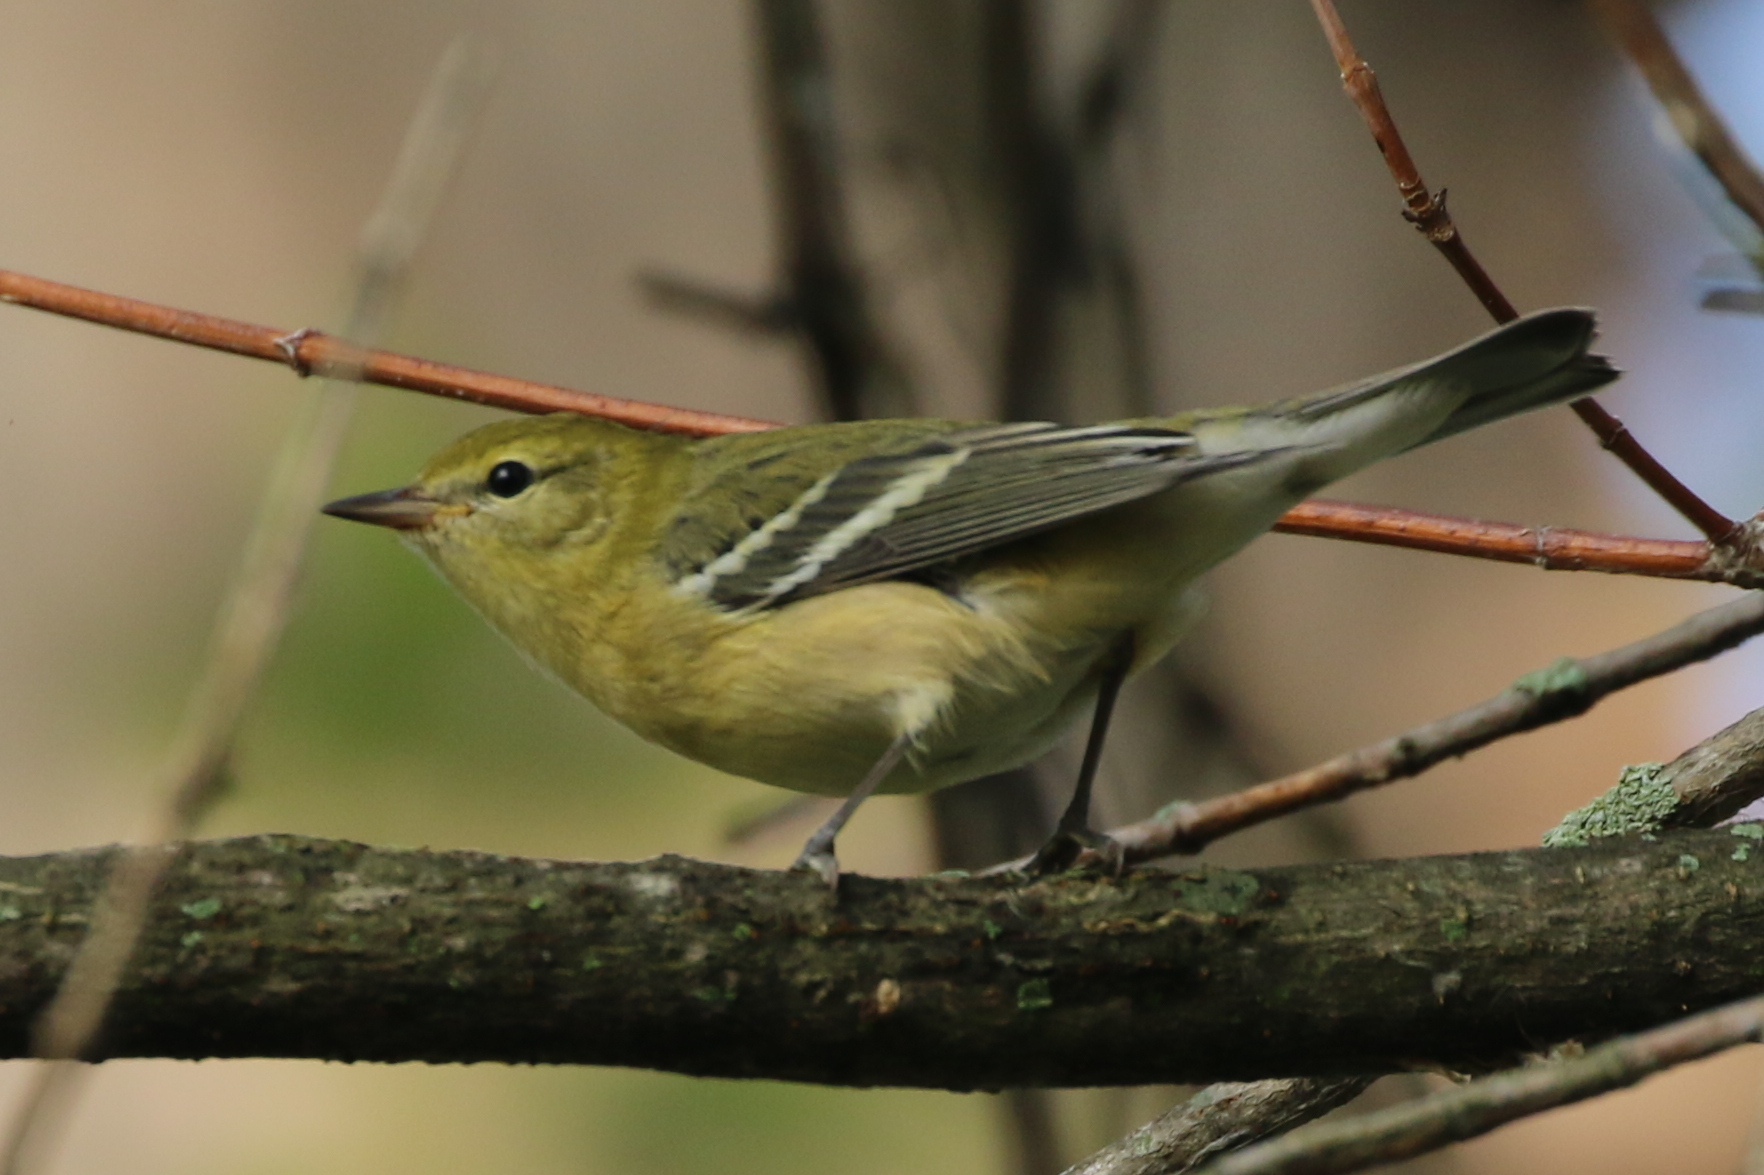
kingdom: Animalia
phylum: Chordata
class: Aves
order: Passeriformes
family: Parulidae
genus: Setophaga
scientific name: Setophaga castanea
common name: Bay-breasted warbler
